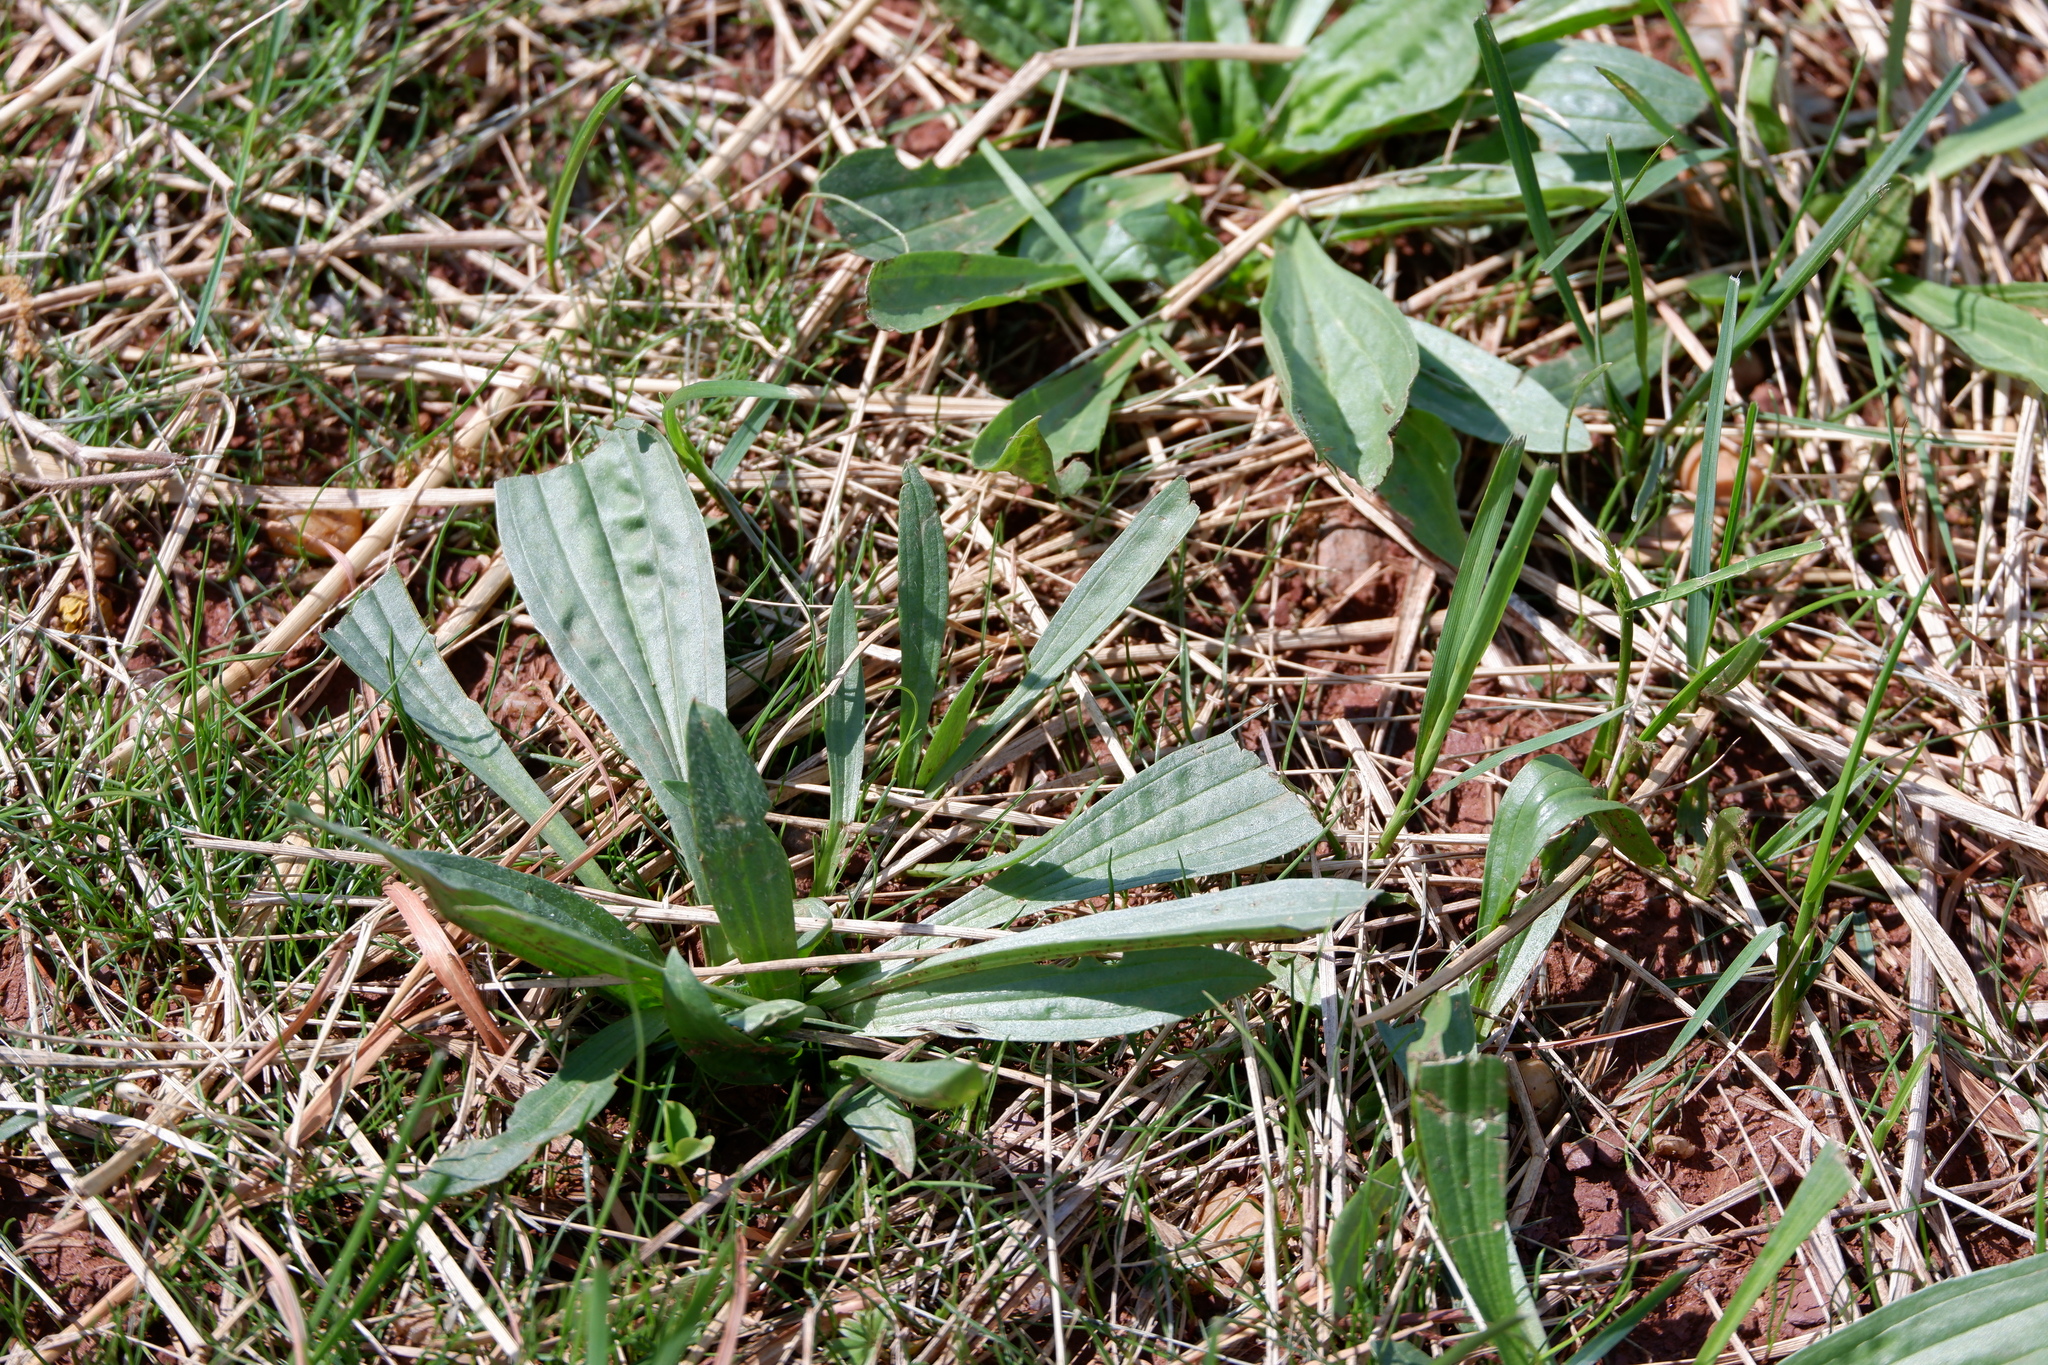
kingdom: Plantae
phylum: Tracheophyta
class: Magnoliopsida
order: Lamiales
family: Plantaginaceae
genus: Plantago
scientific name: Plantago lanceolata
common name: Ribwort plantain
